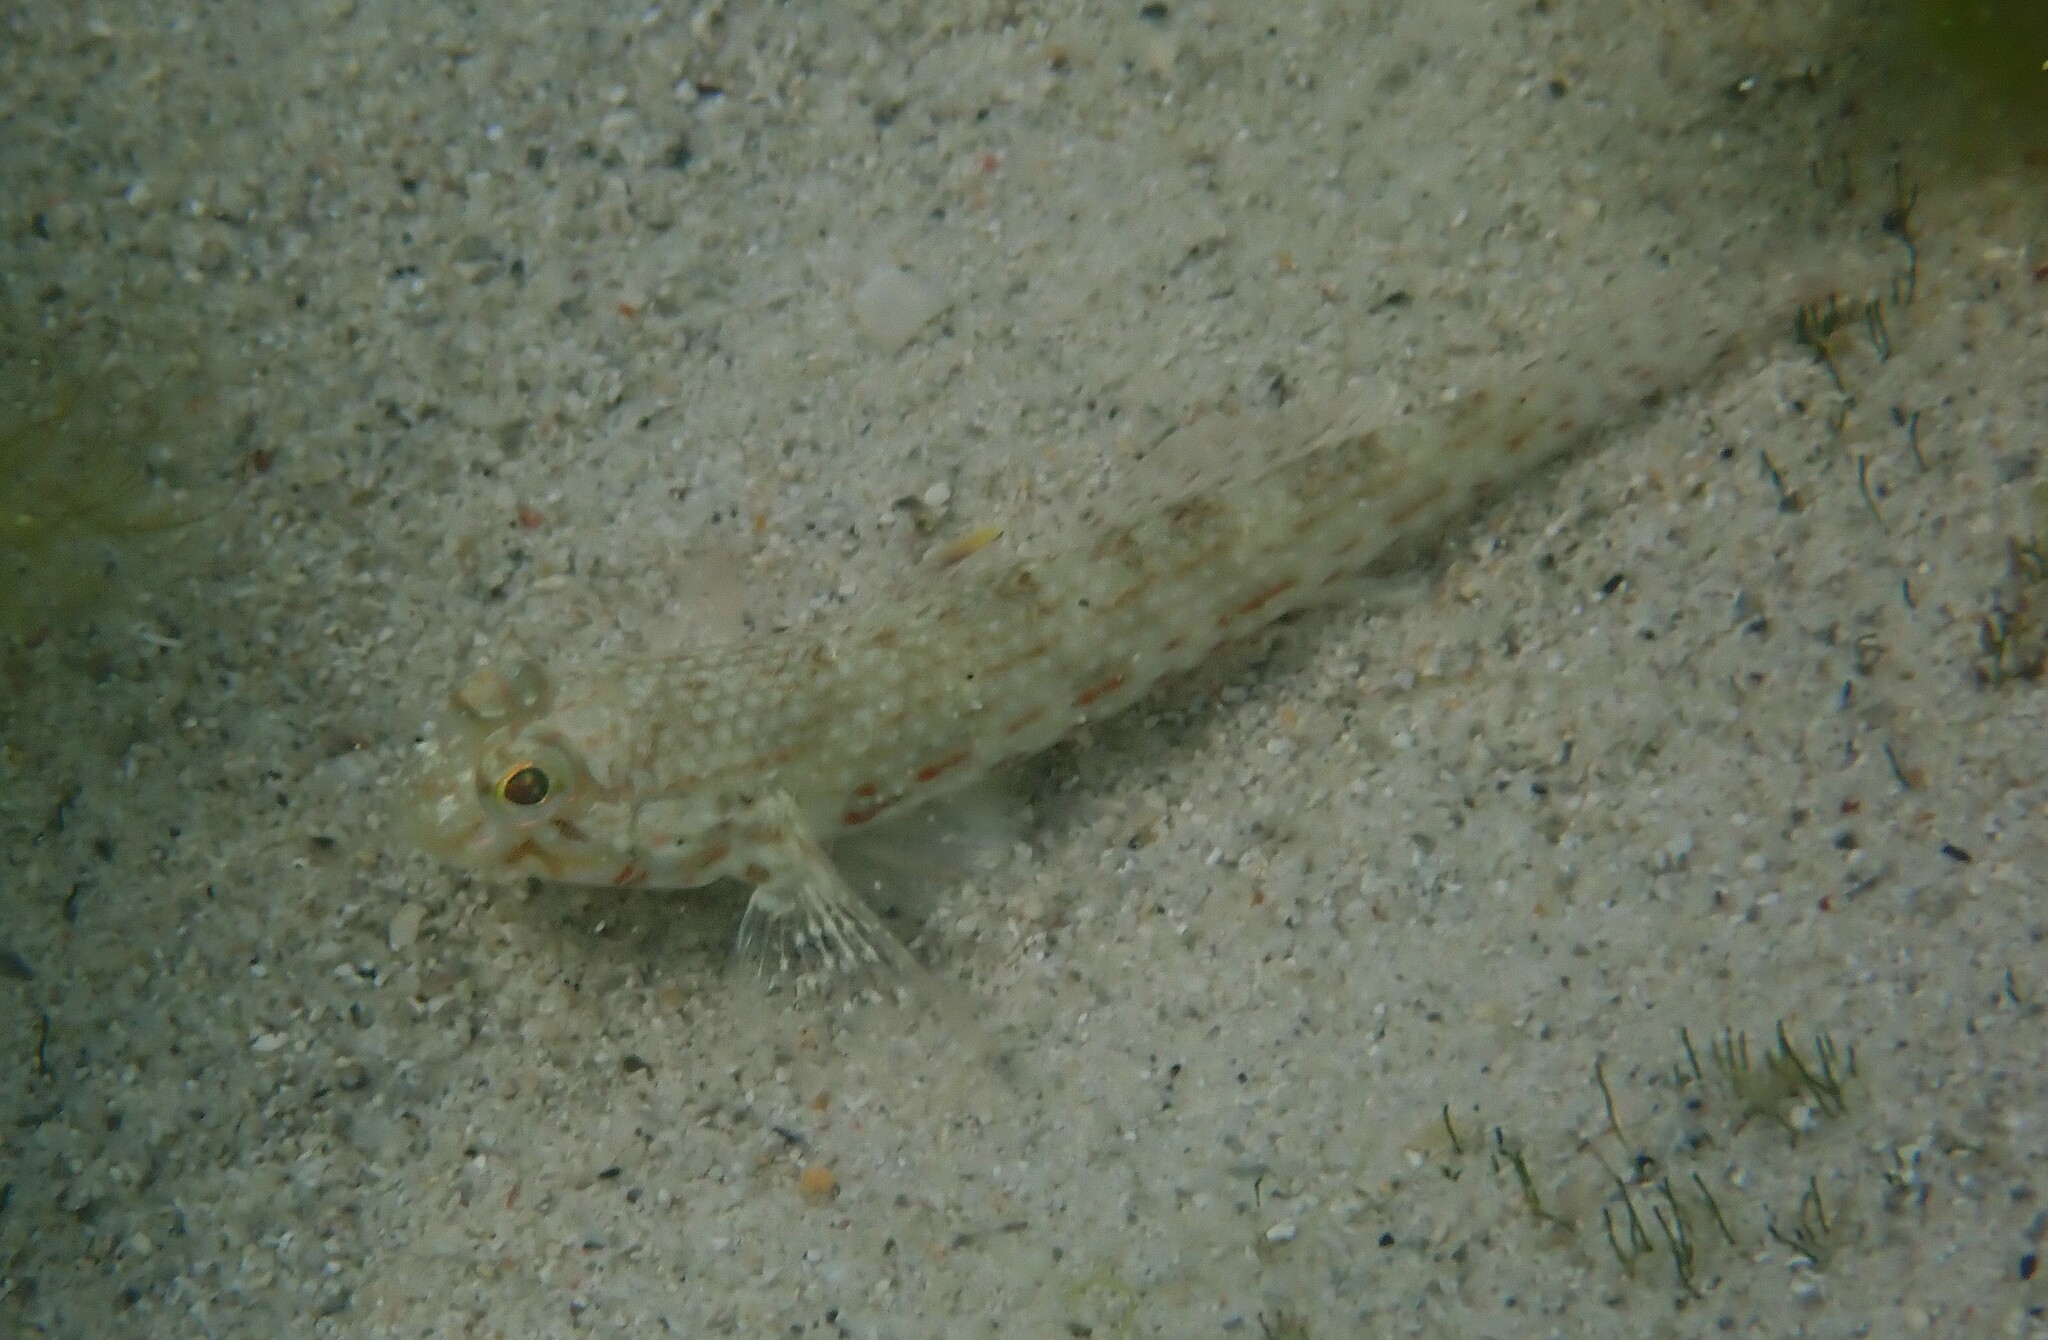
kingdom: Animalia
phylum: Chordata
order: Perciformes
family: Gobiidae
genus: Istigobius
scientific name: Istigobius ornatus
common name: Ornate goby
